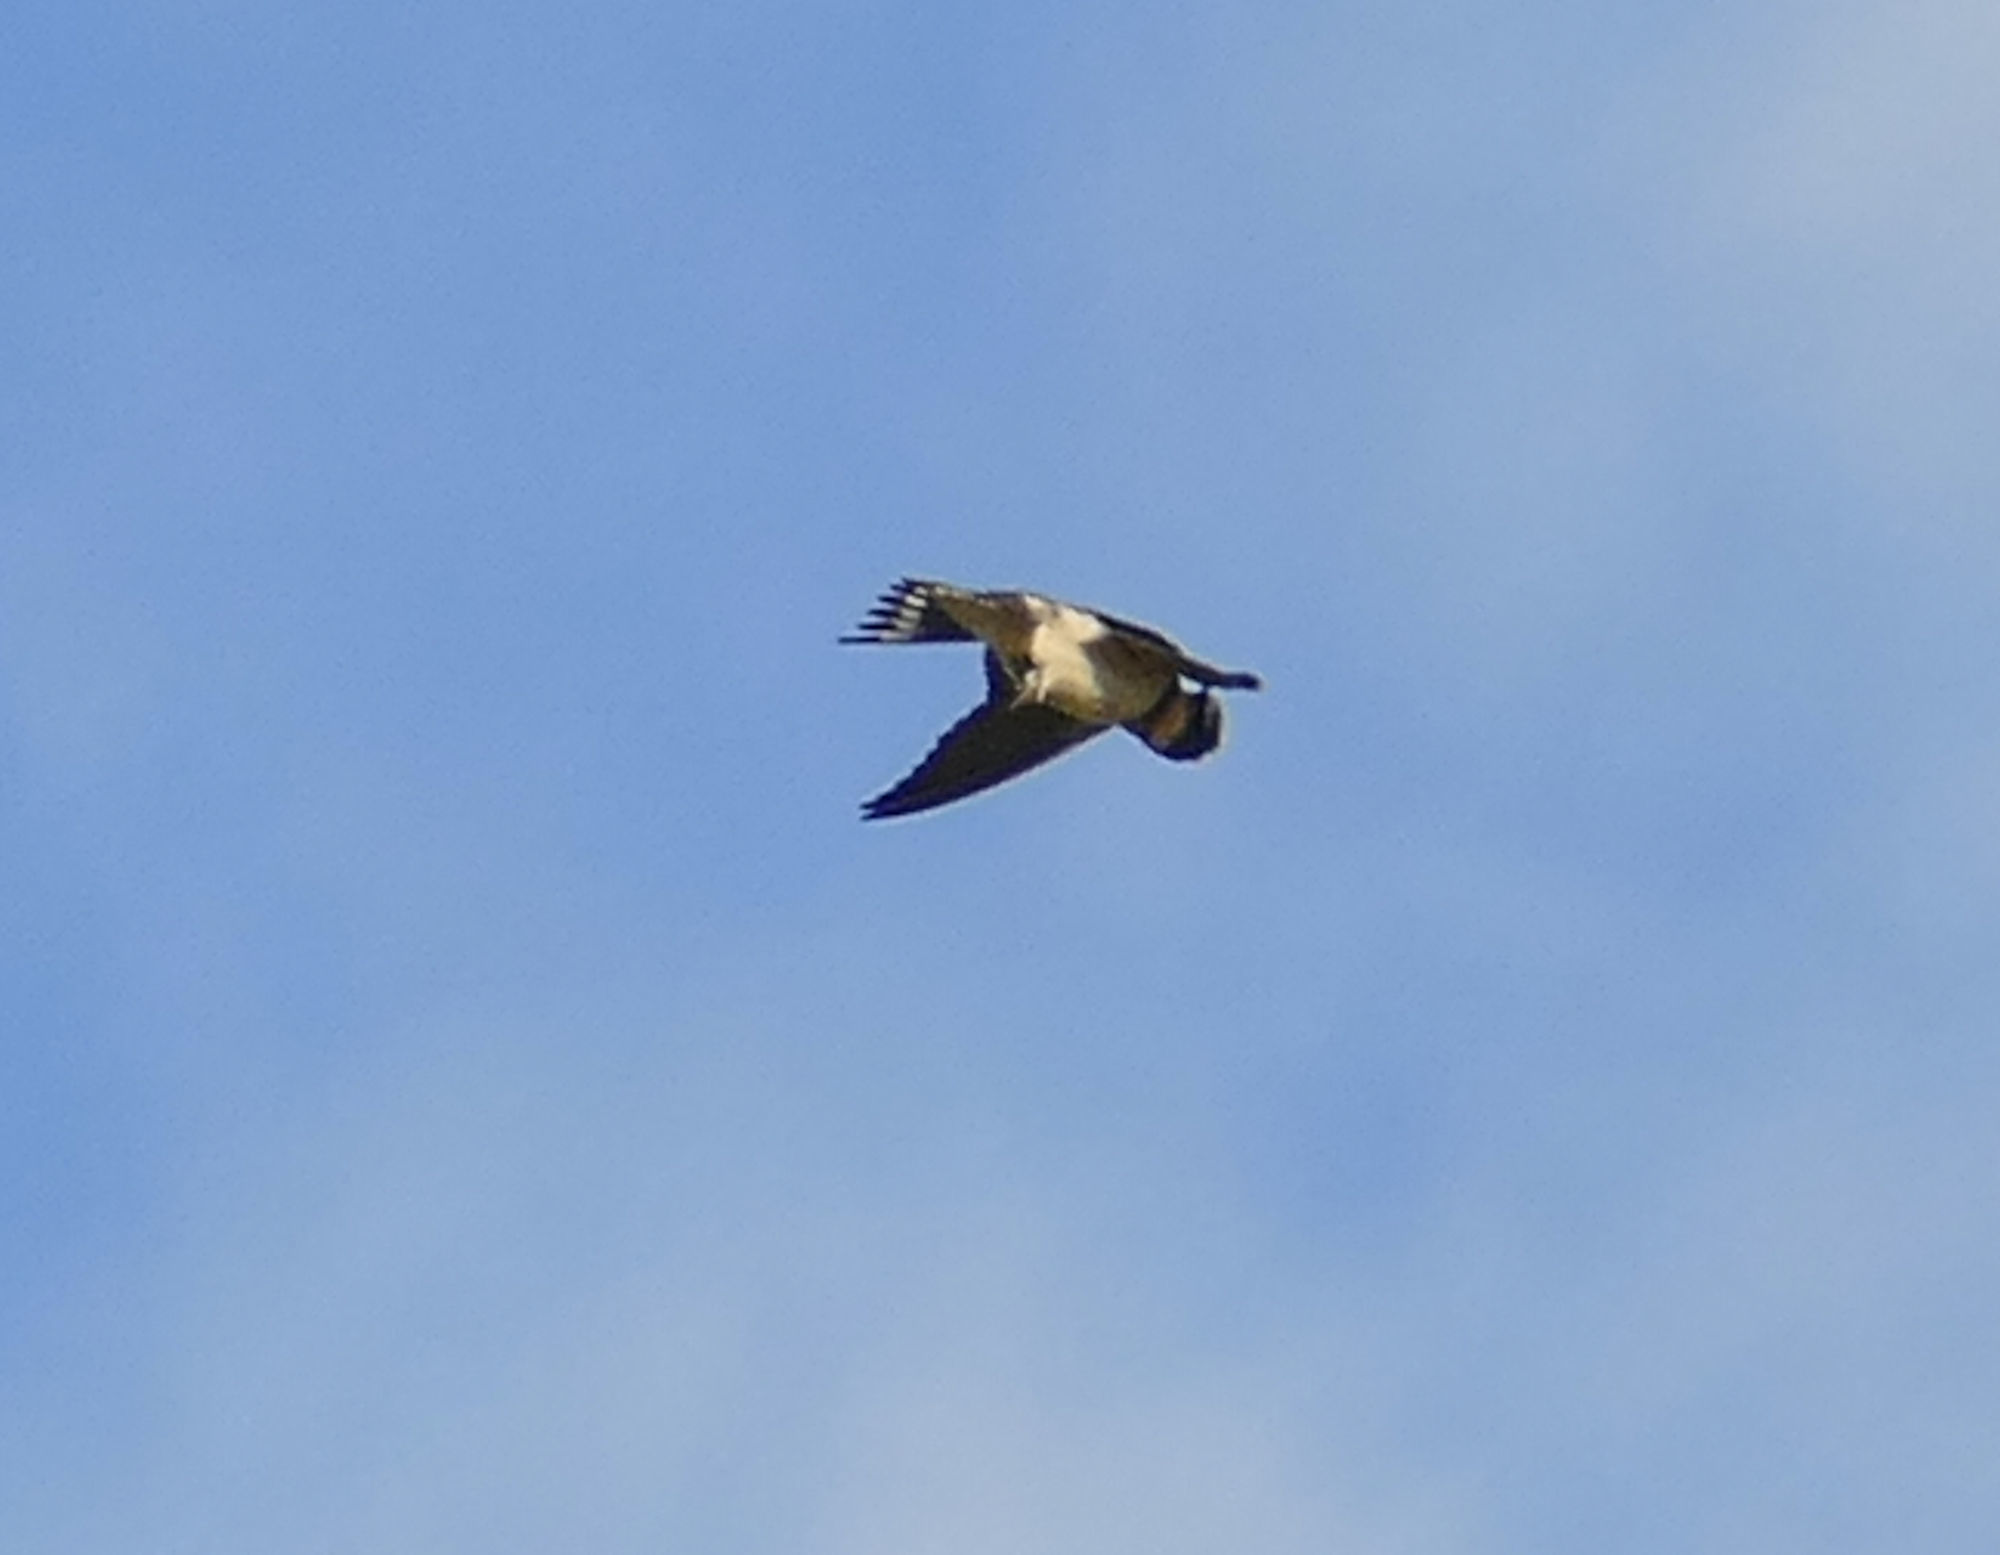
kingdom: Animalia
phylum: Chordata
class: Aves
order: Passeriformes
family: Hirundinidae
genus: Hirundo
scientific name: Hirundo rustica
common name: Barn swallow
